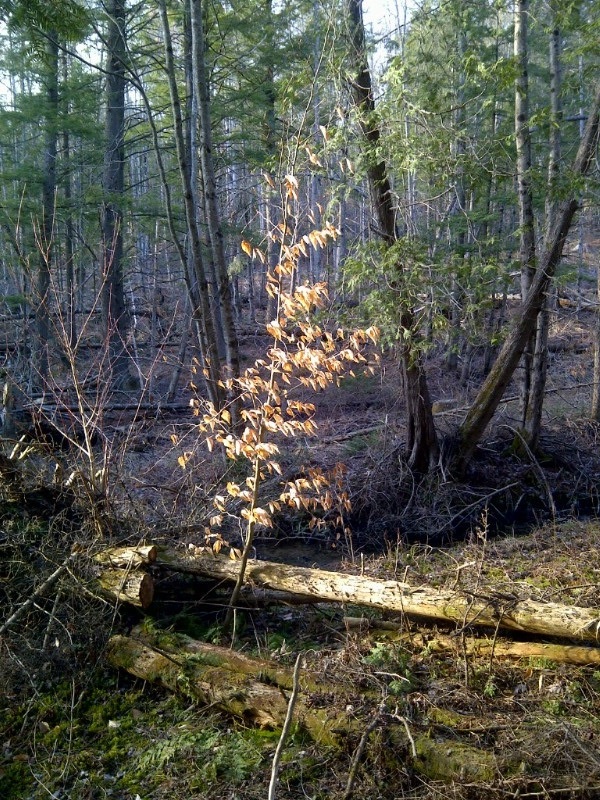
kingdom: Plantae
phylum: Tracheophyta
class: Magnoliopsida
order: Fagales
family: Fagaceae
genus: Fagus
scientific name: Fagus grandifolia
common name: American beech
